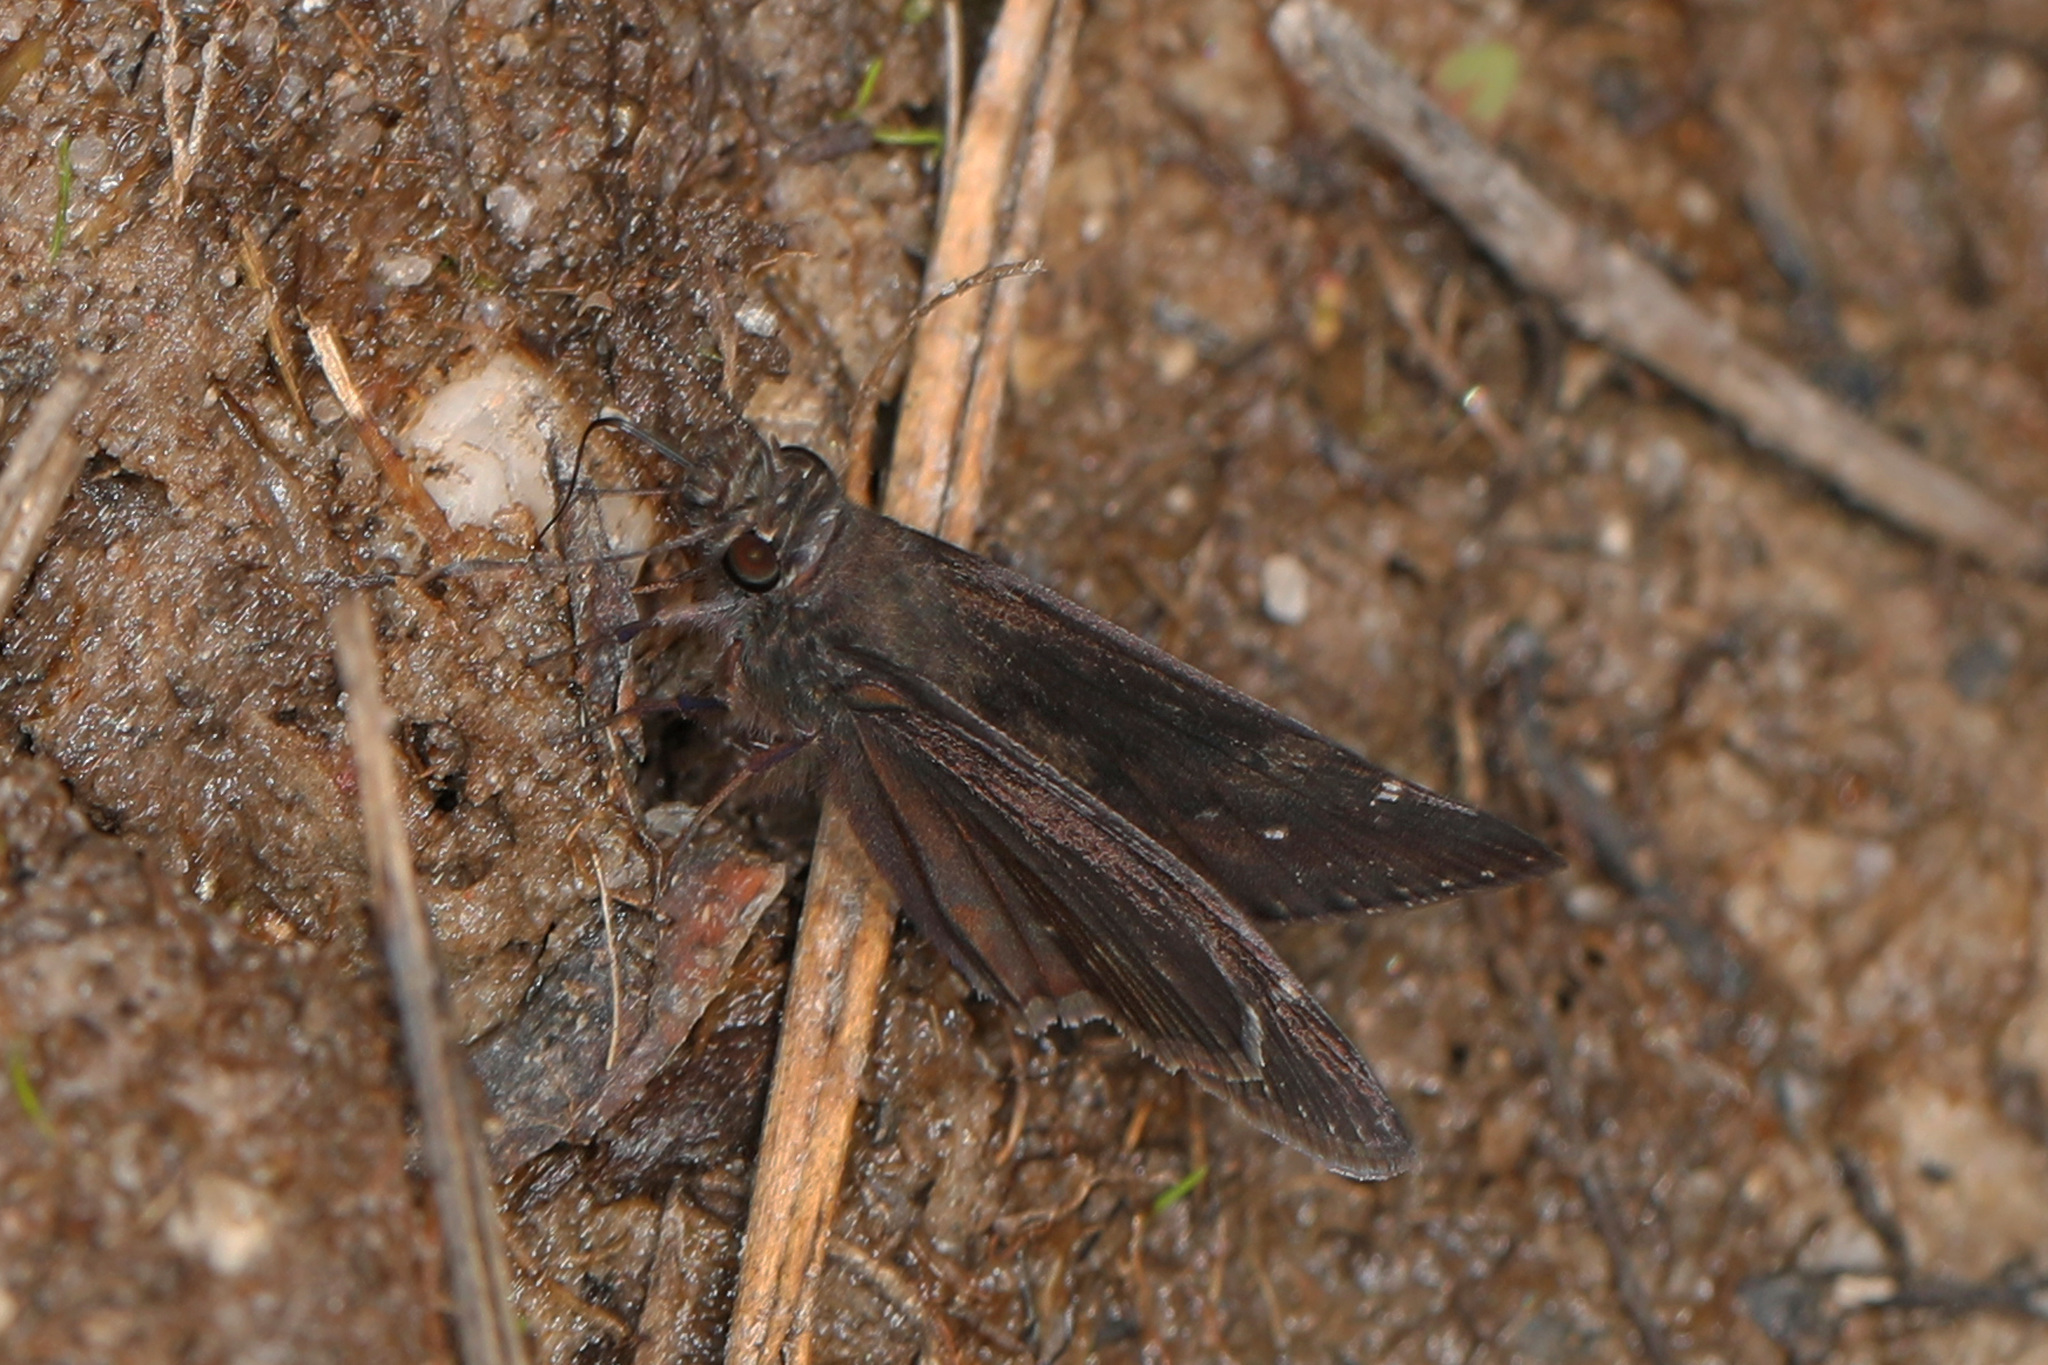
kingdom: Animalia
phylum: Arthropoda
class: Insecta
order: Lepidoptera
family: Hesperiidae
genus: Erynnis
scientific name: Erynnis zarucco
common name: Zarucco duskywing
